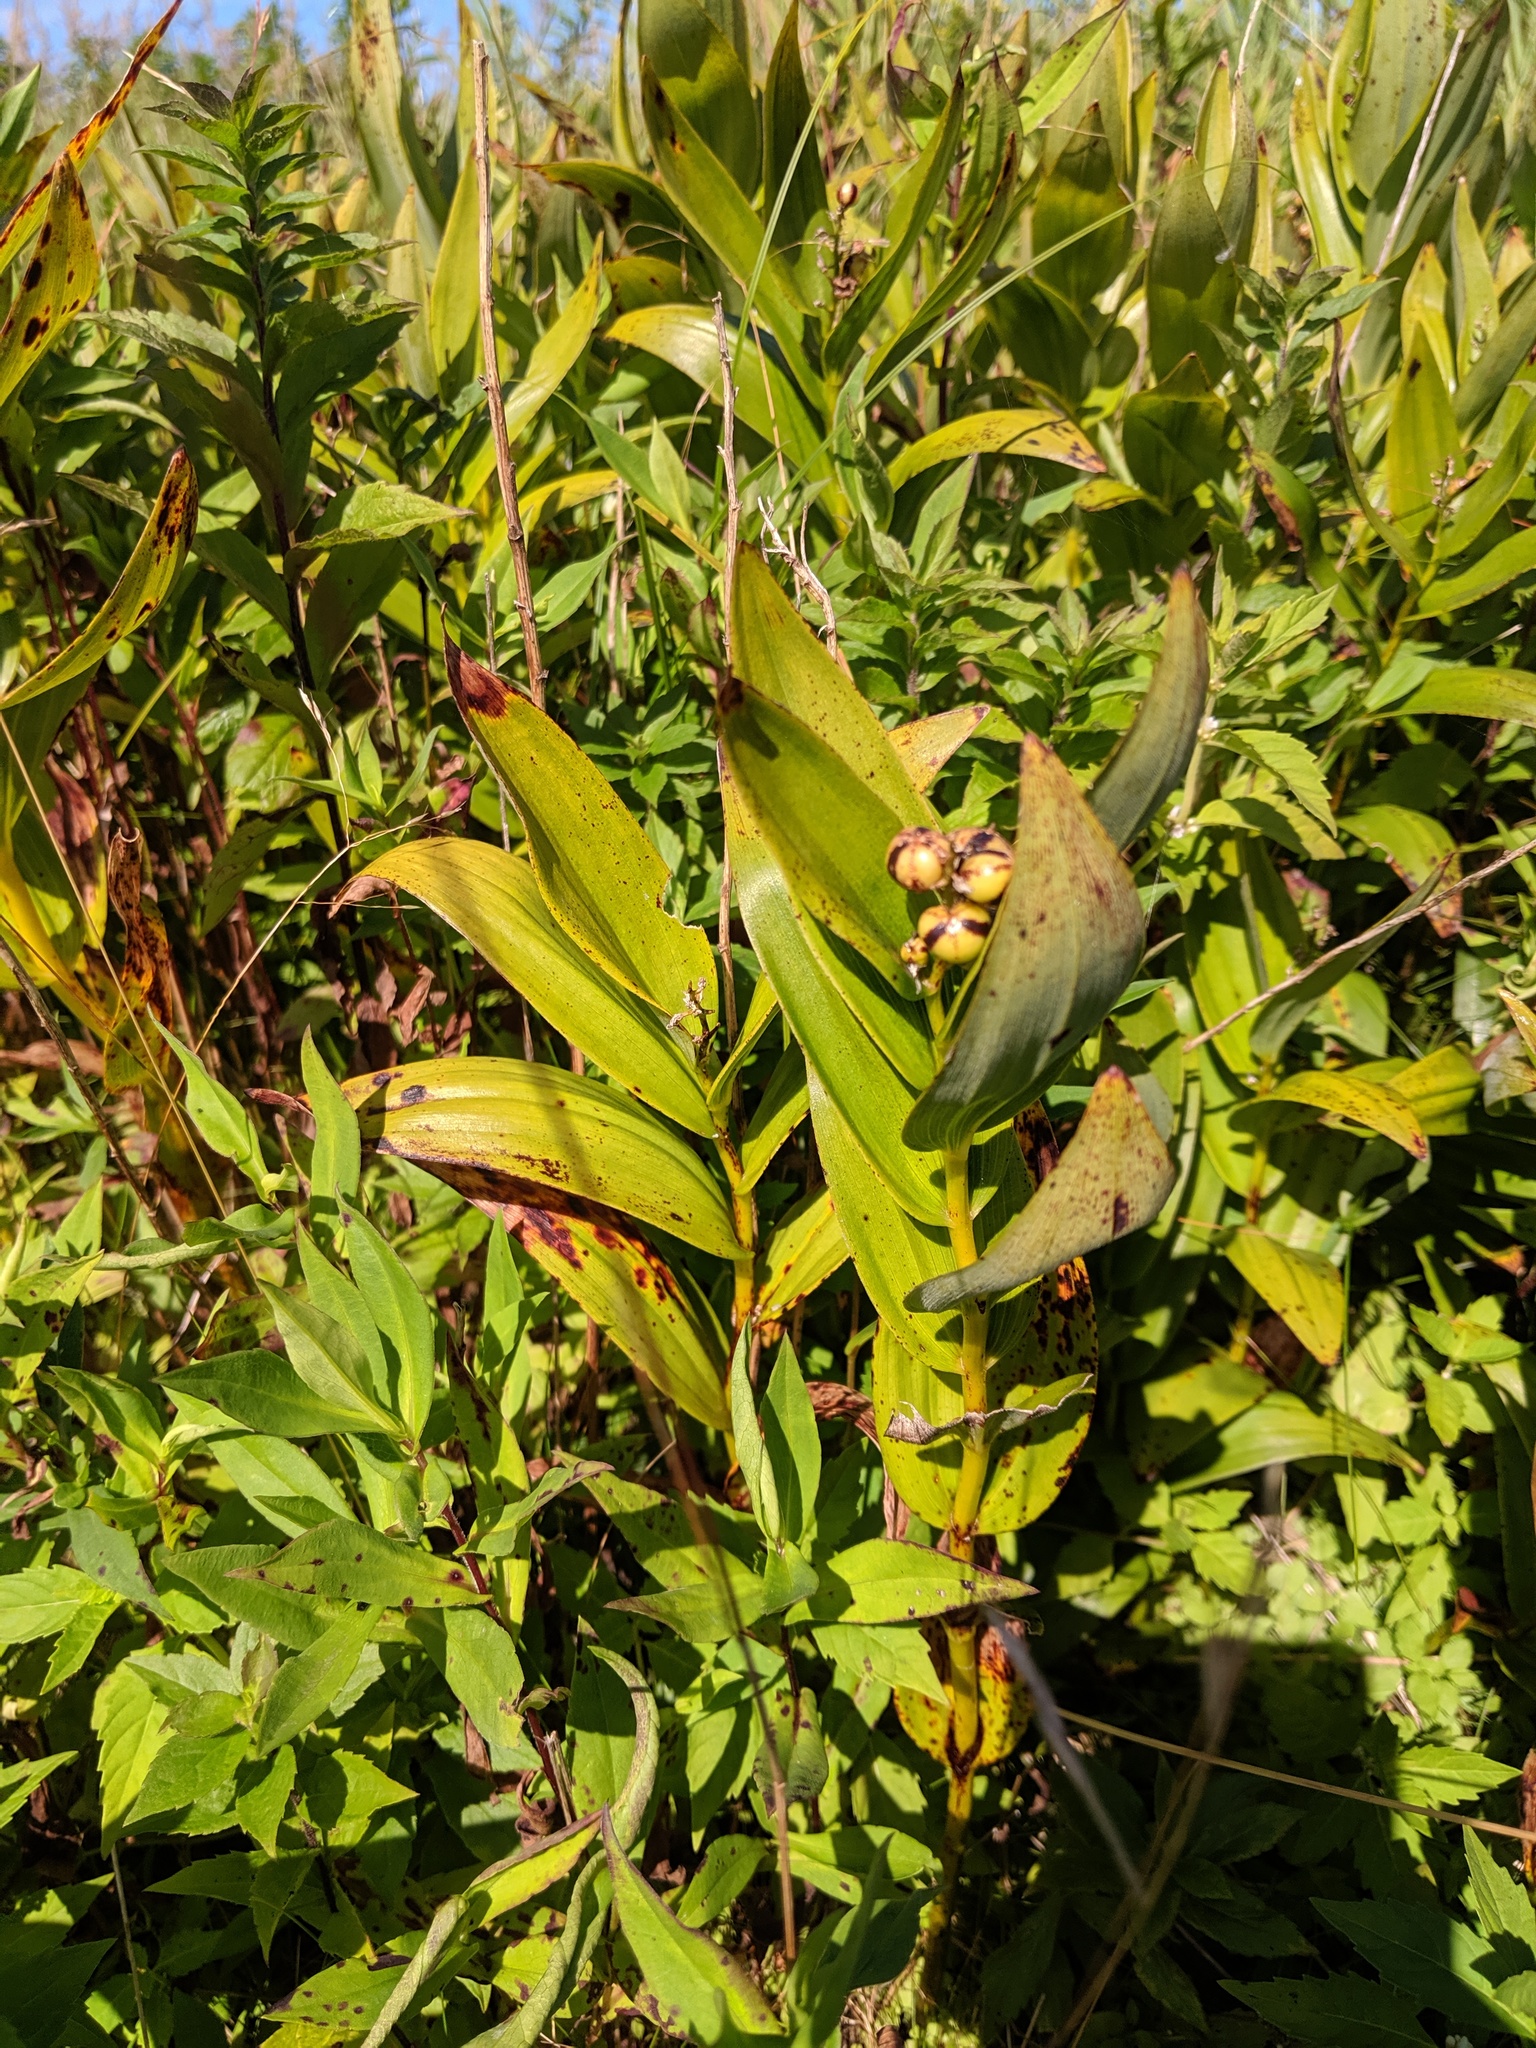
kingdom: Plantae
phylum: Tracheophyta
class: Liliopsida
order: Asparagales
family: Asparagaceae
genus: Maianthemum
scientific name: Maianthemum stellatum
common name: Little false solomon's seal
